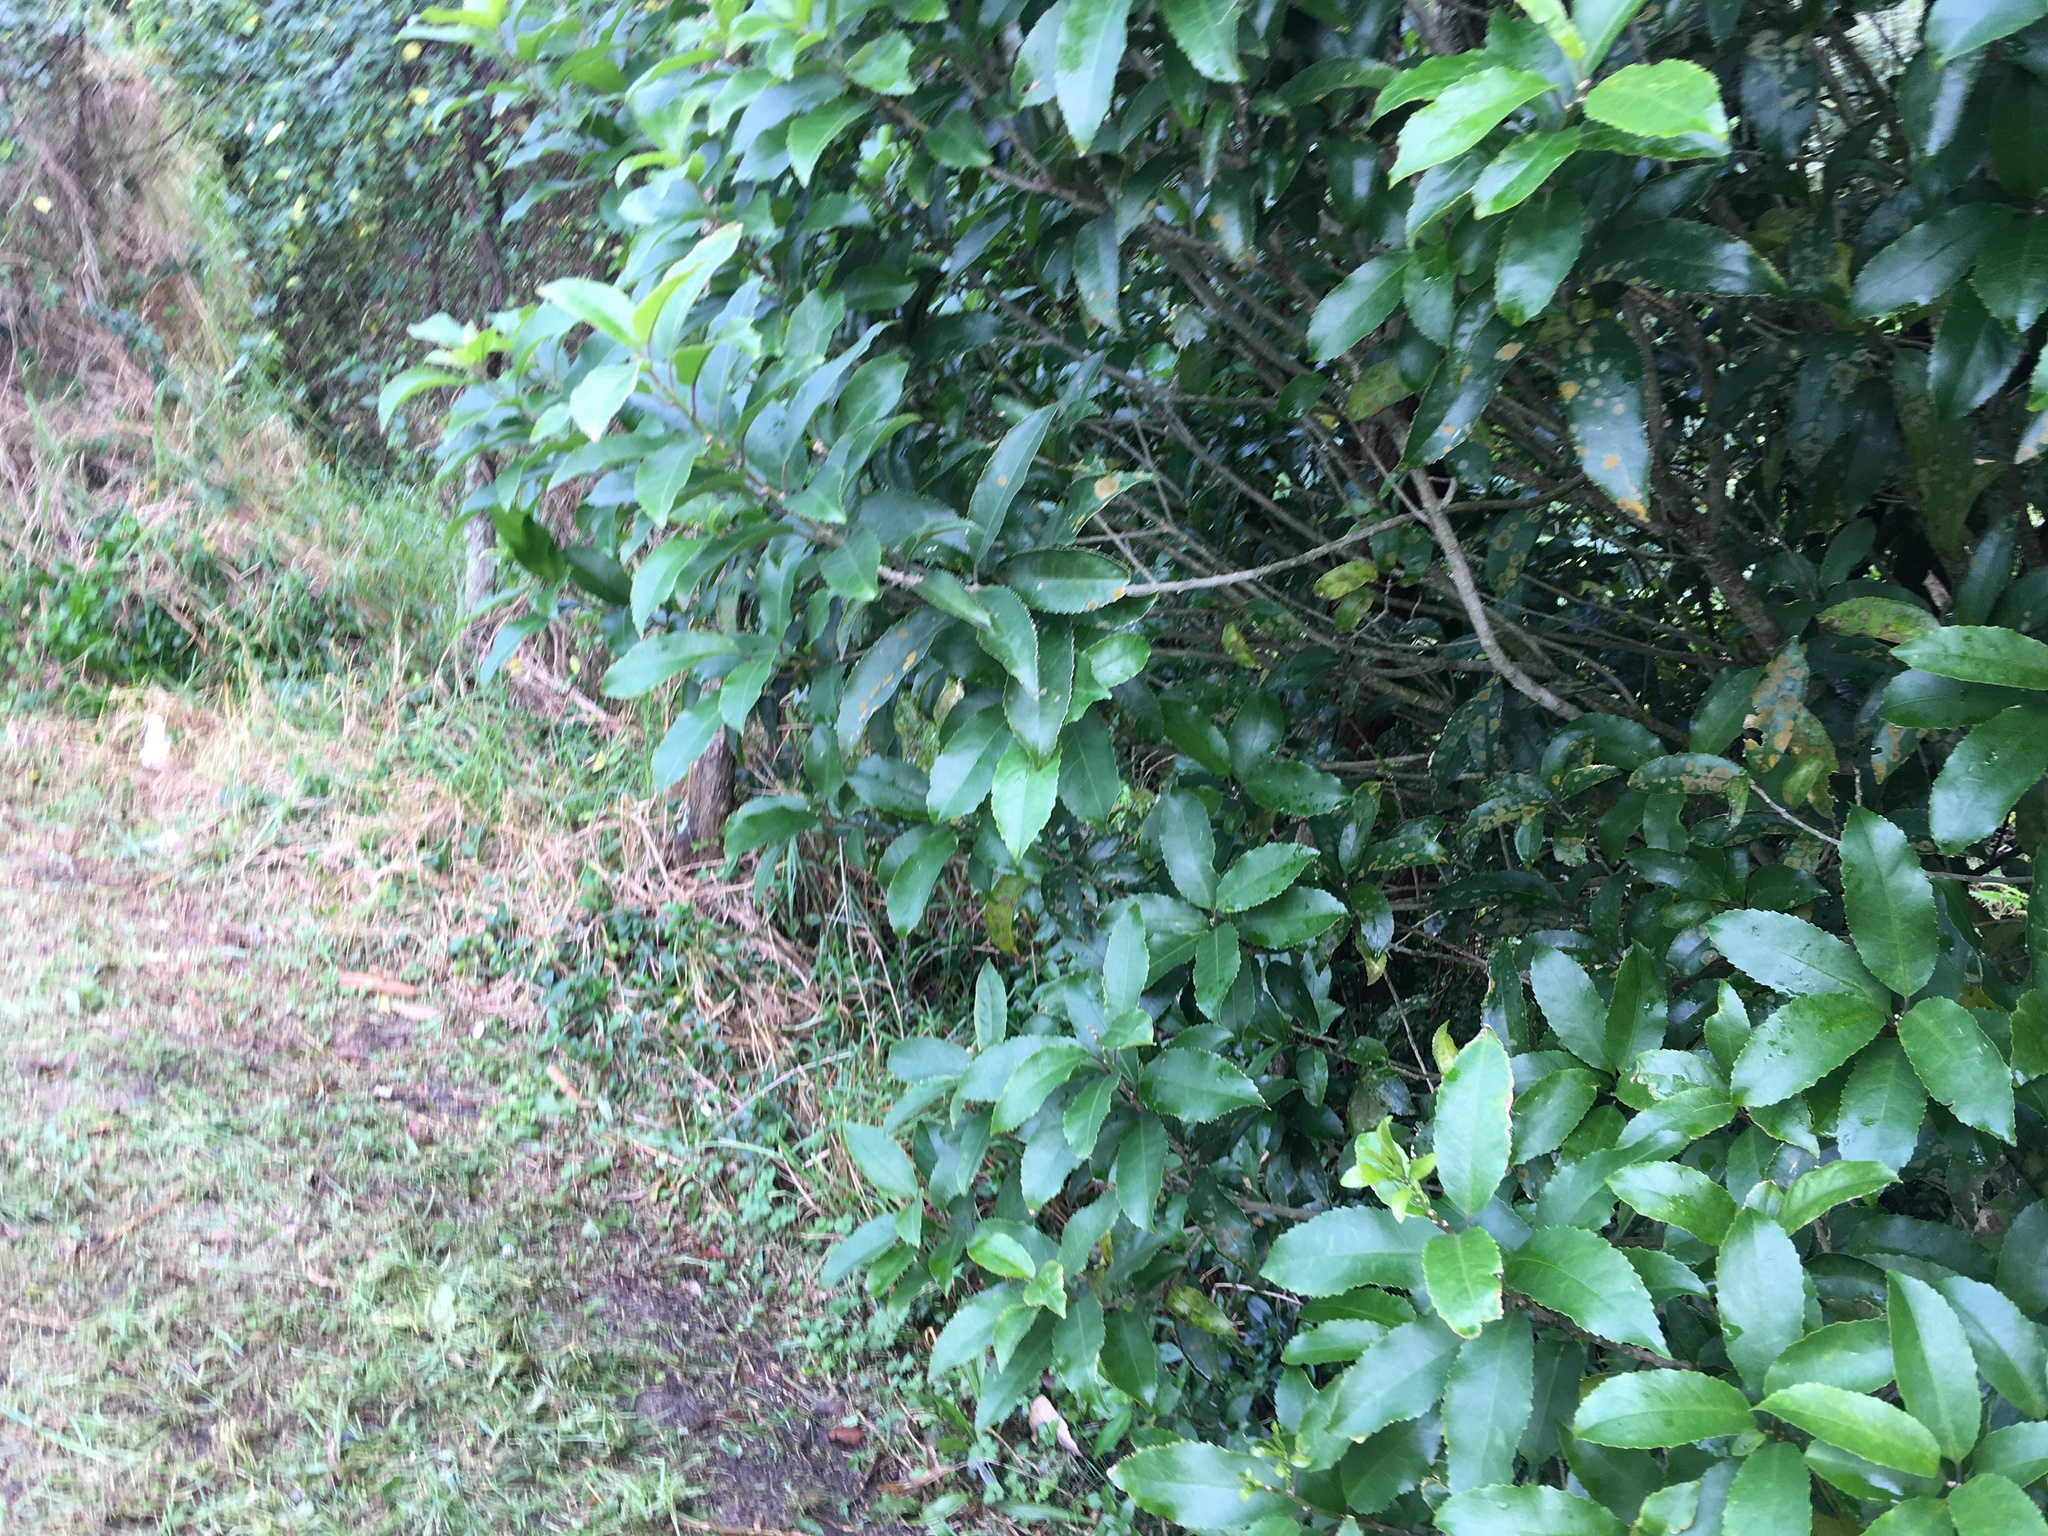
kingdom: Plantae
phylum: Tracheophyta
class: Magnoliopsida
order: Malpighiales
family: Violaceae
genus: Melicytus
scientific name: Melicytus ramiflorus
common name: Mahoe
